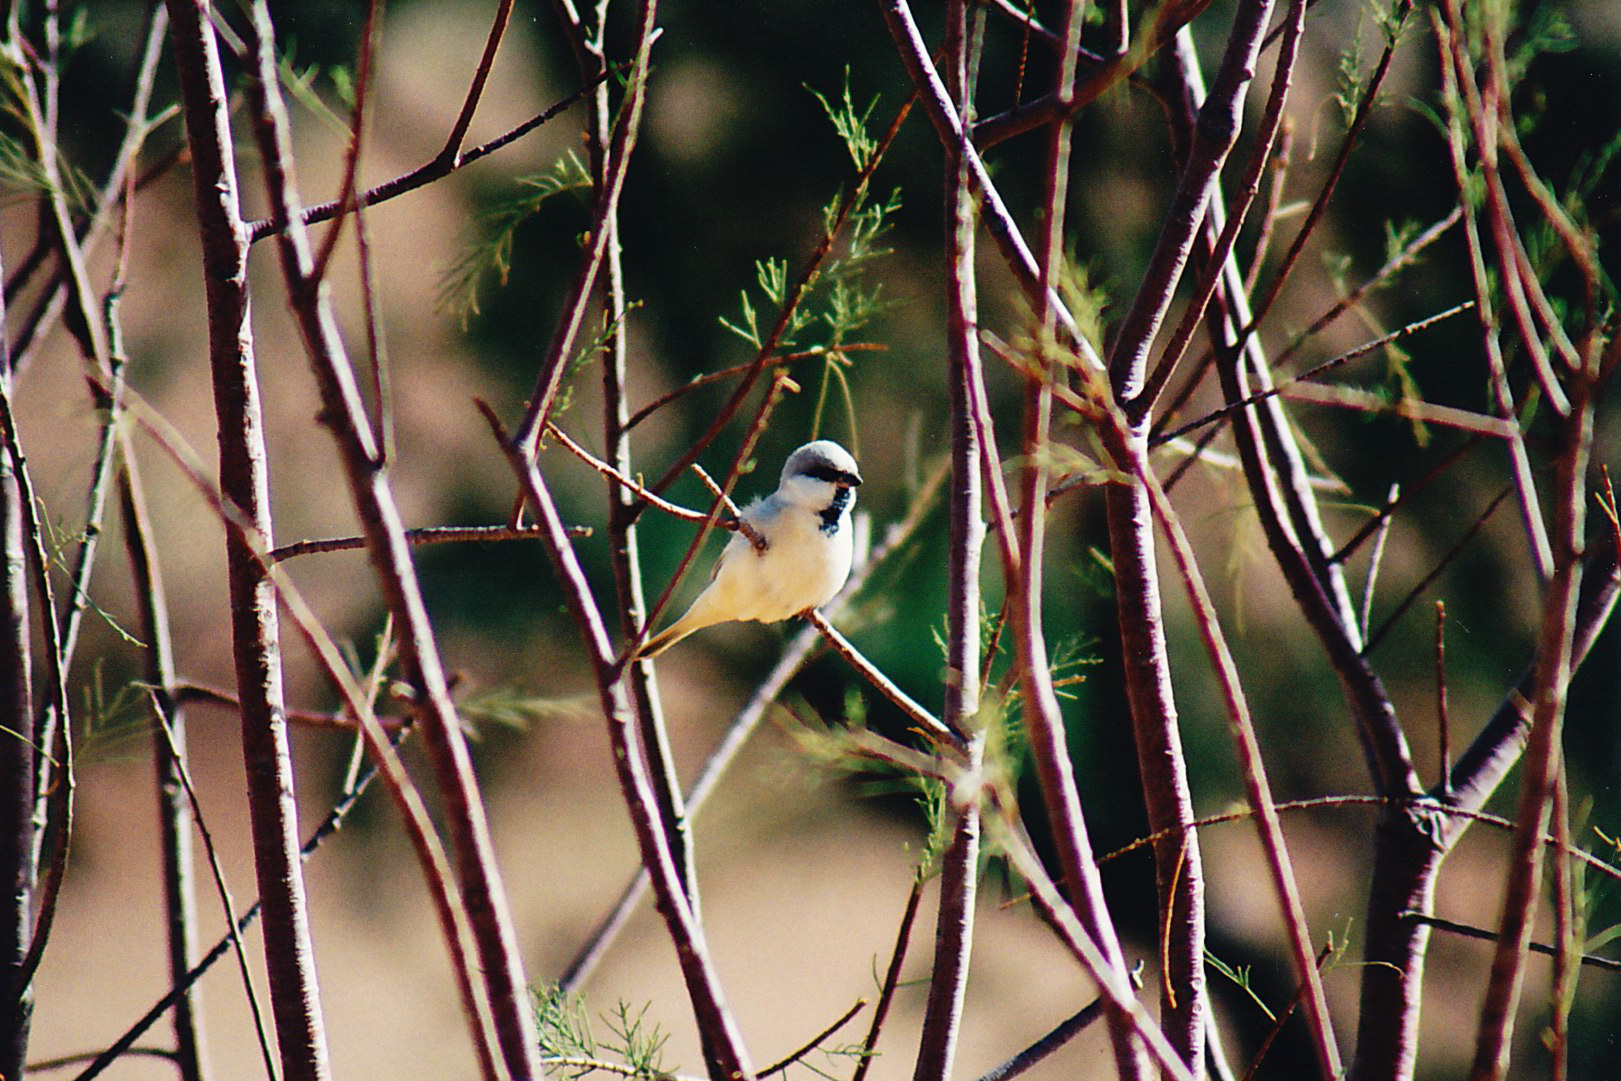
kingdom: Animalia
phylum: Chordata
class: Aves
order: Passeriformes
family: Passeridae
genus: Passer
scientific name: Passer simplex
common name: Desert sparrow
